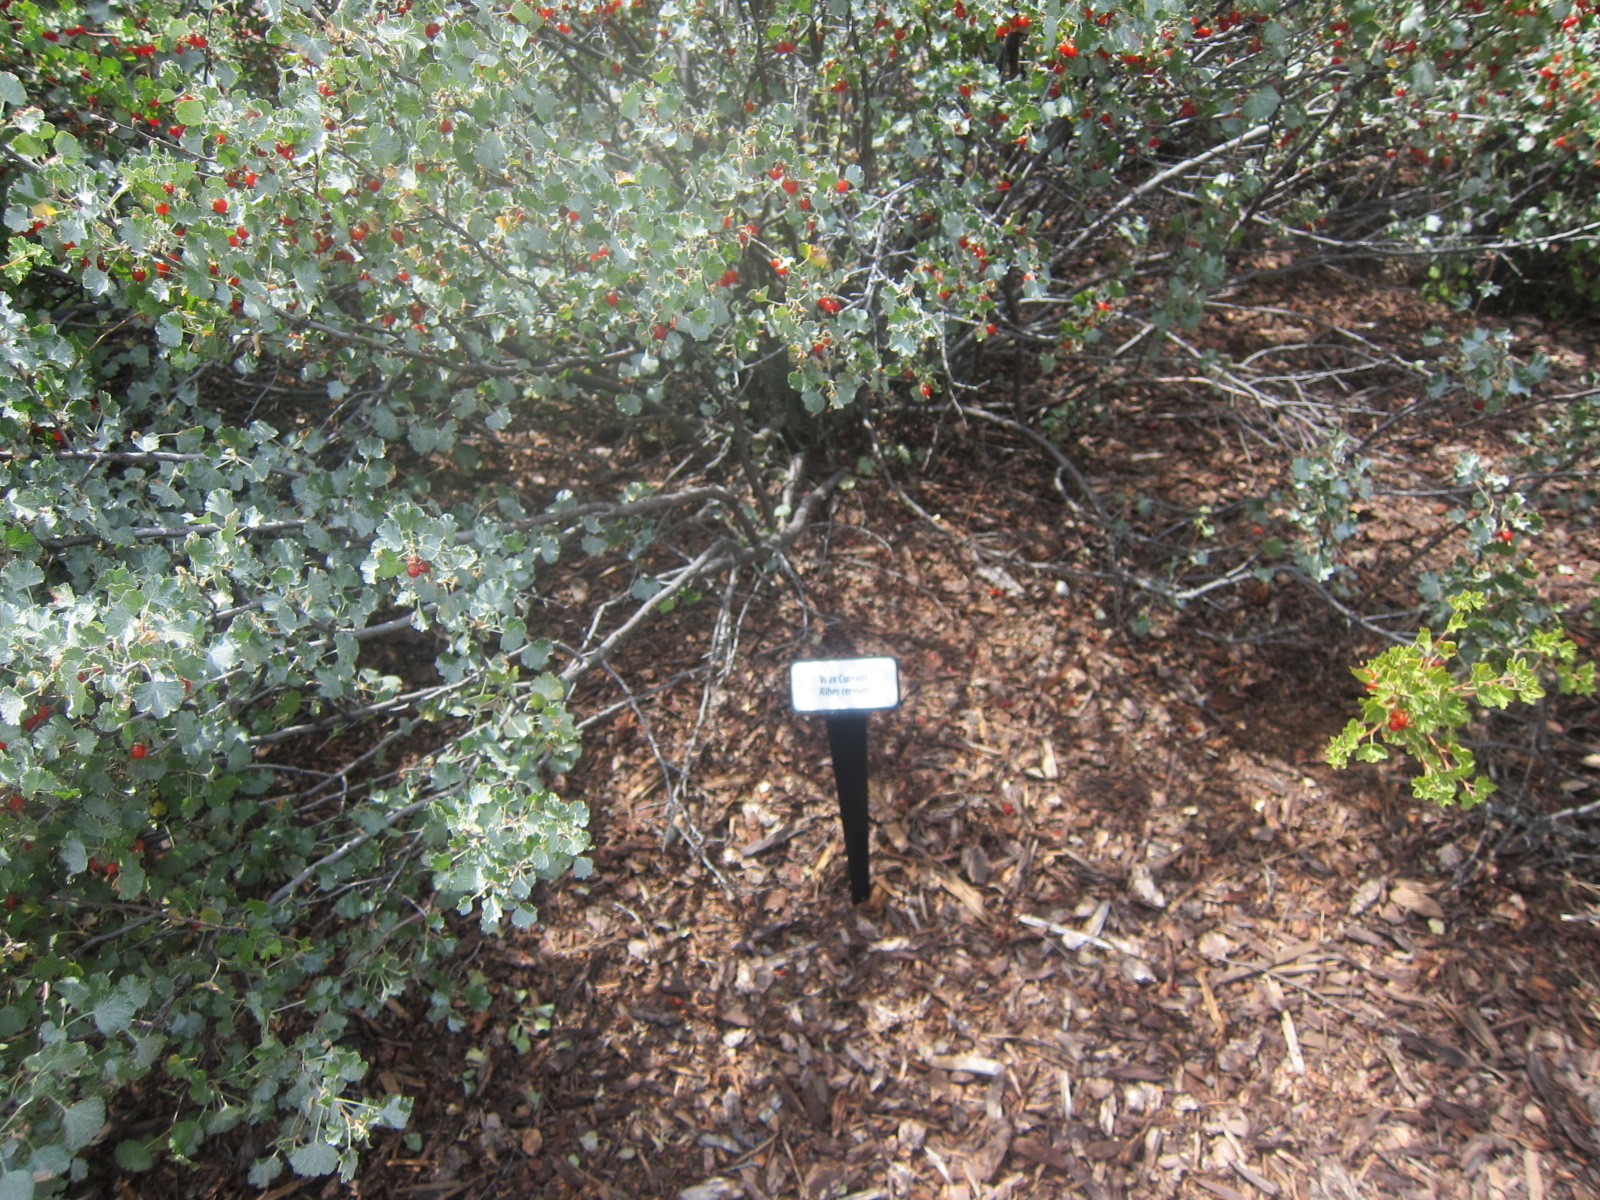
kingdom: Plantae
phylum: Tracheophyta
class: Magnoliopsida
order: Saxifragales
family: Grossulariaceae
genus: Ribes
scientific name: Ribes cereum
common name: Wax currant
